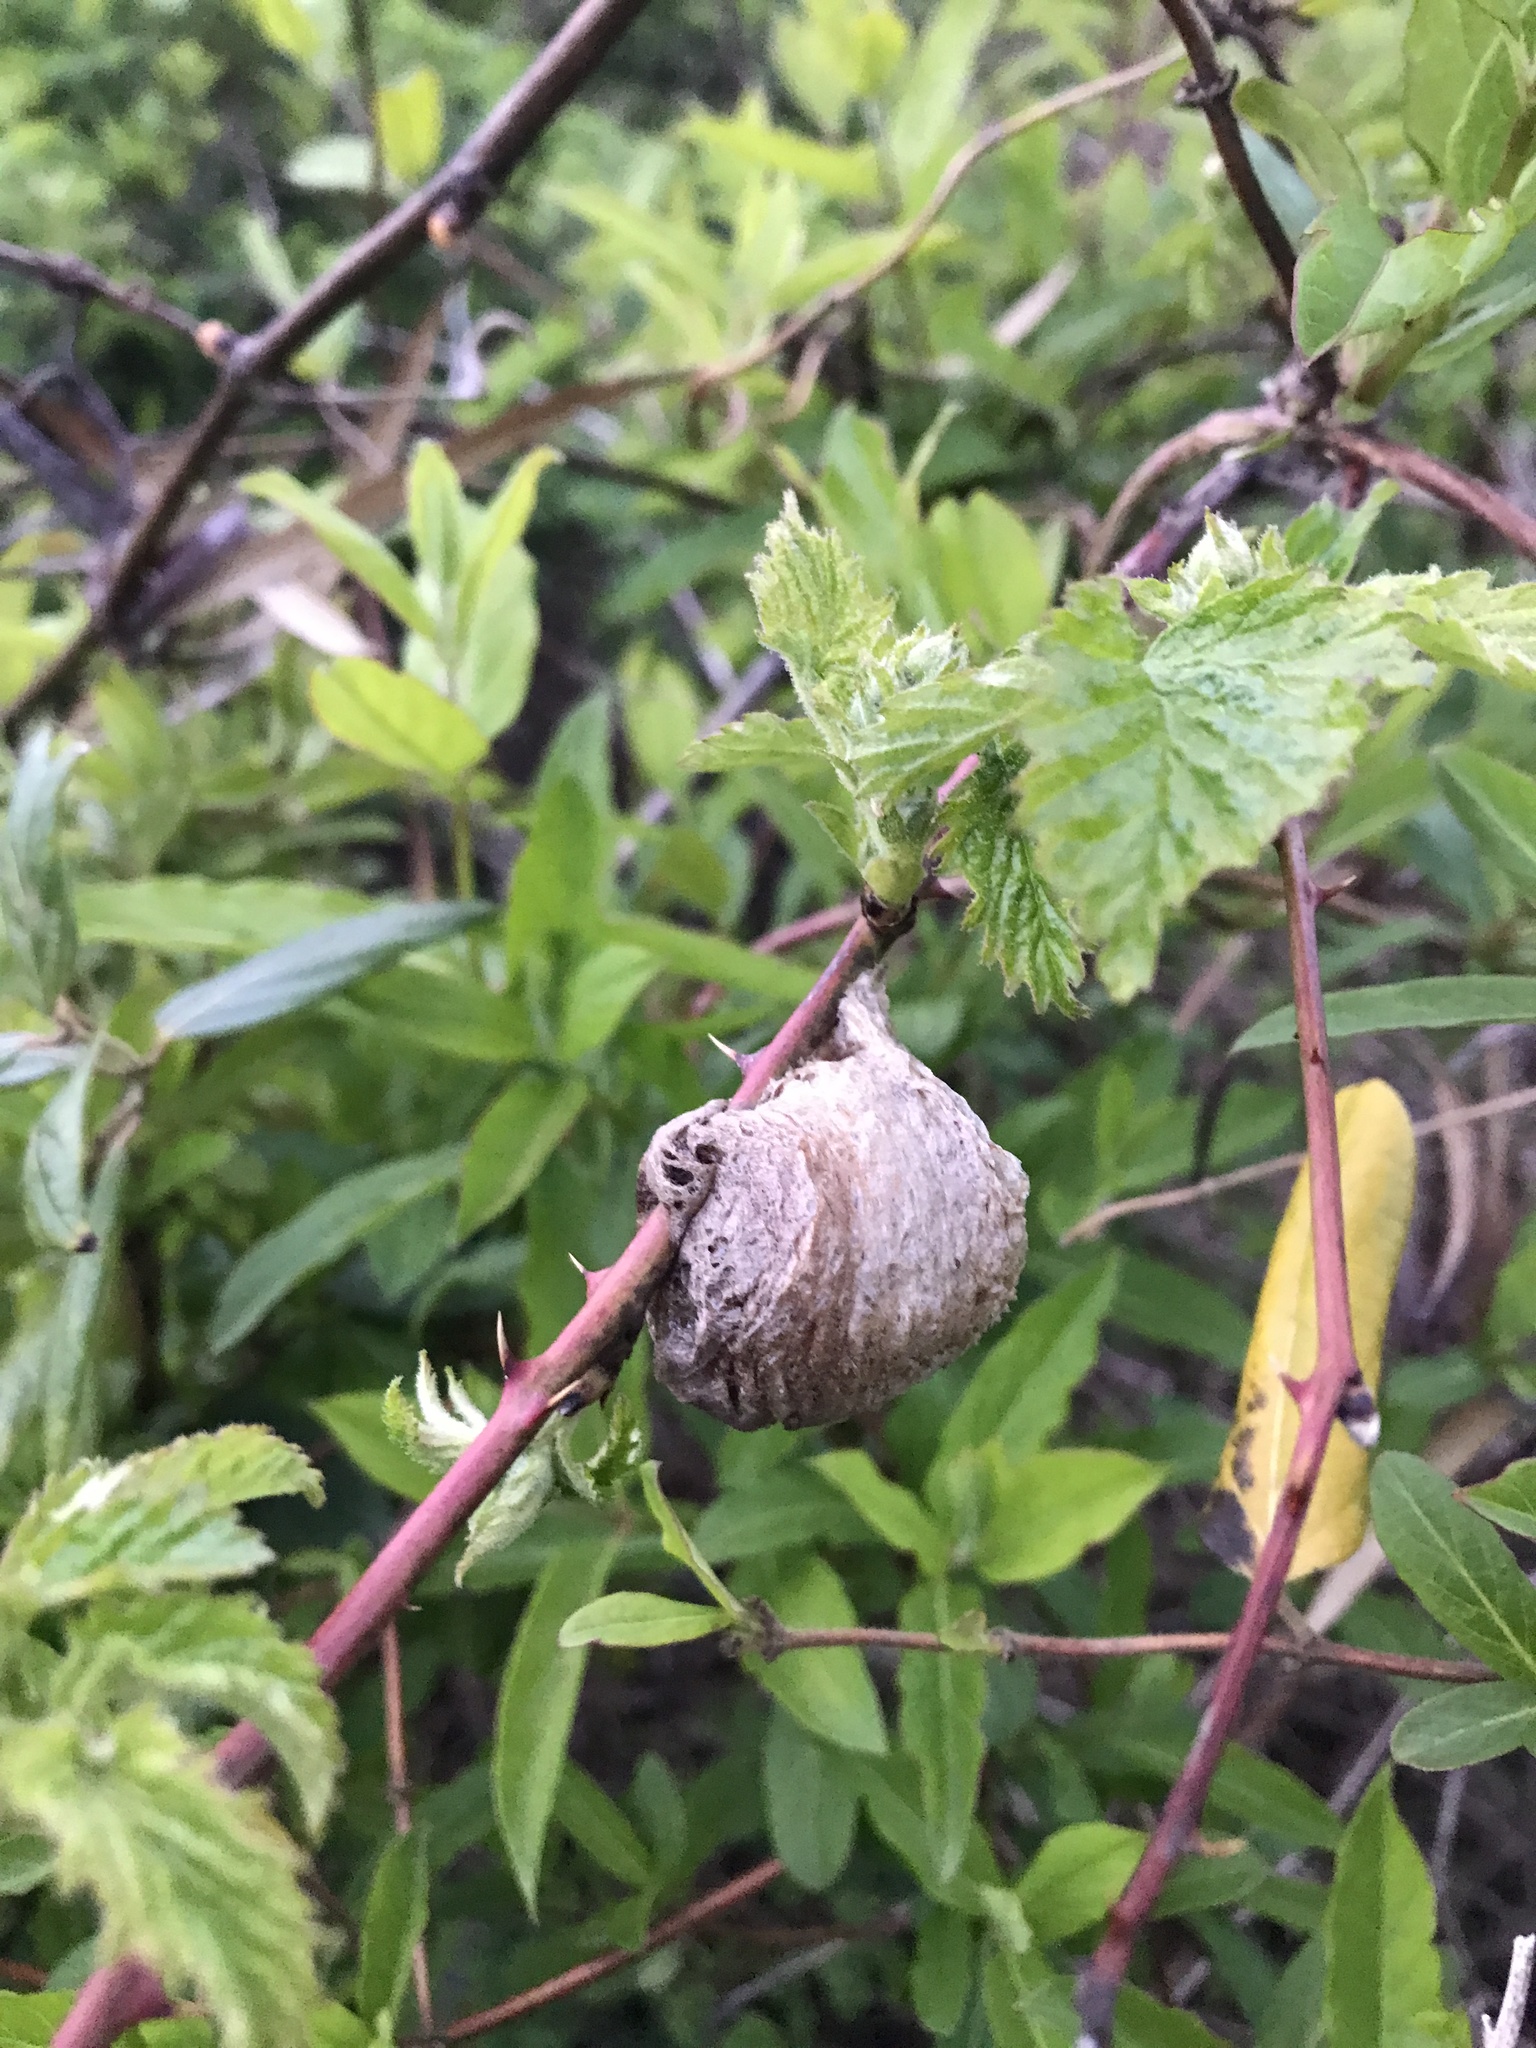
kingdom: Animalia
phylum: Arthropoda
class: Insecta
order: Mantodea
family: Mantidae
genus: Tenodera
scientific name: Tenodera sinensis
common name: Chinese mantis
